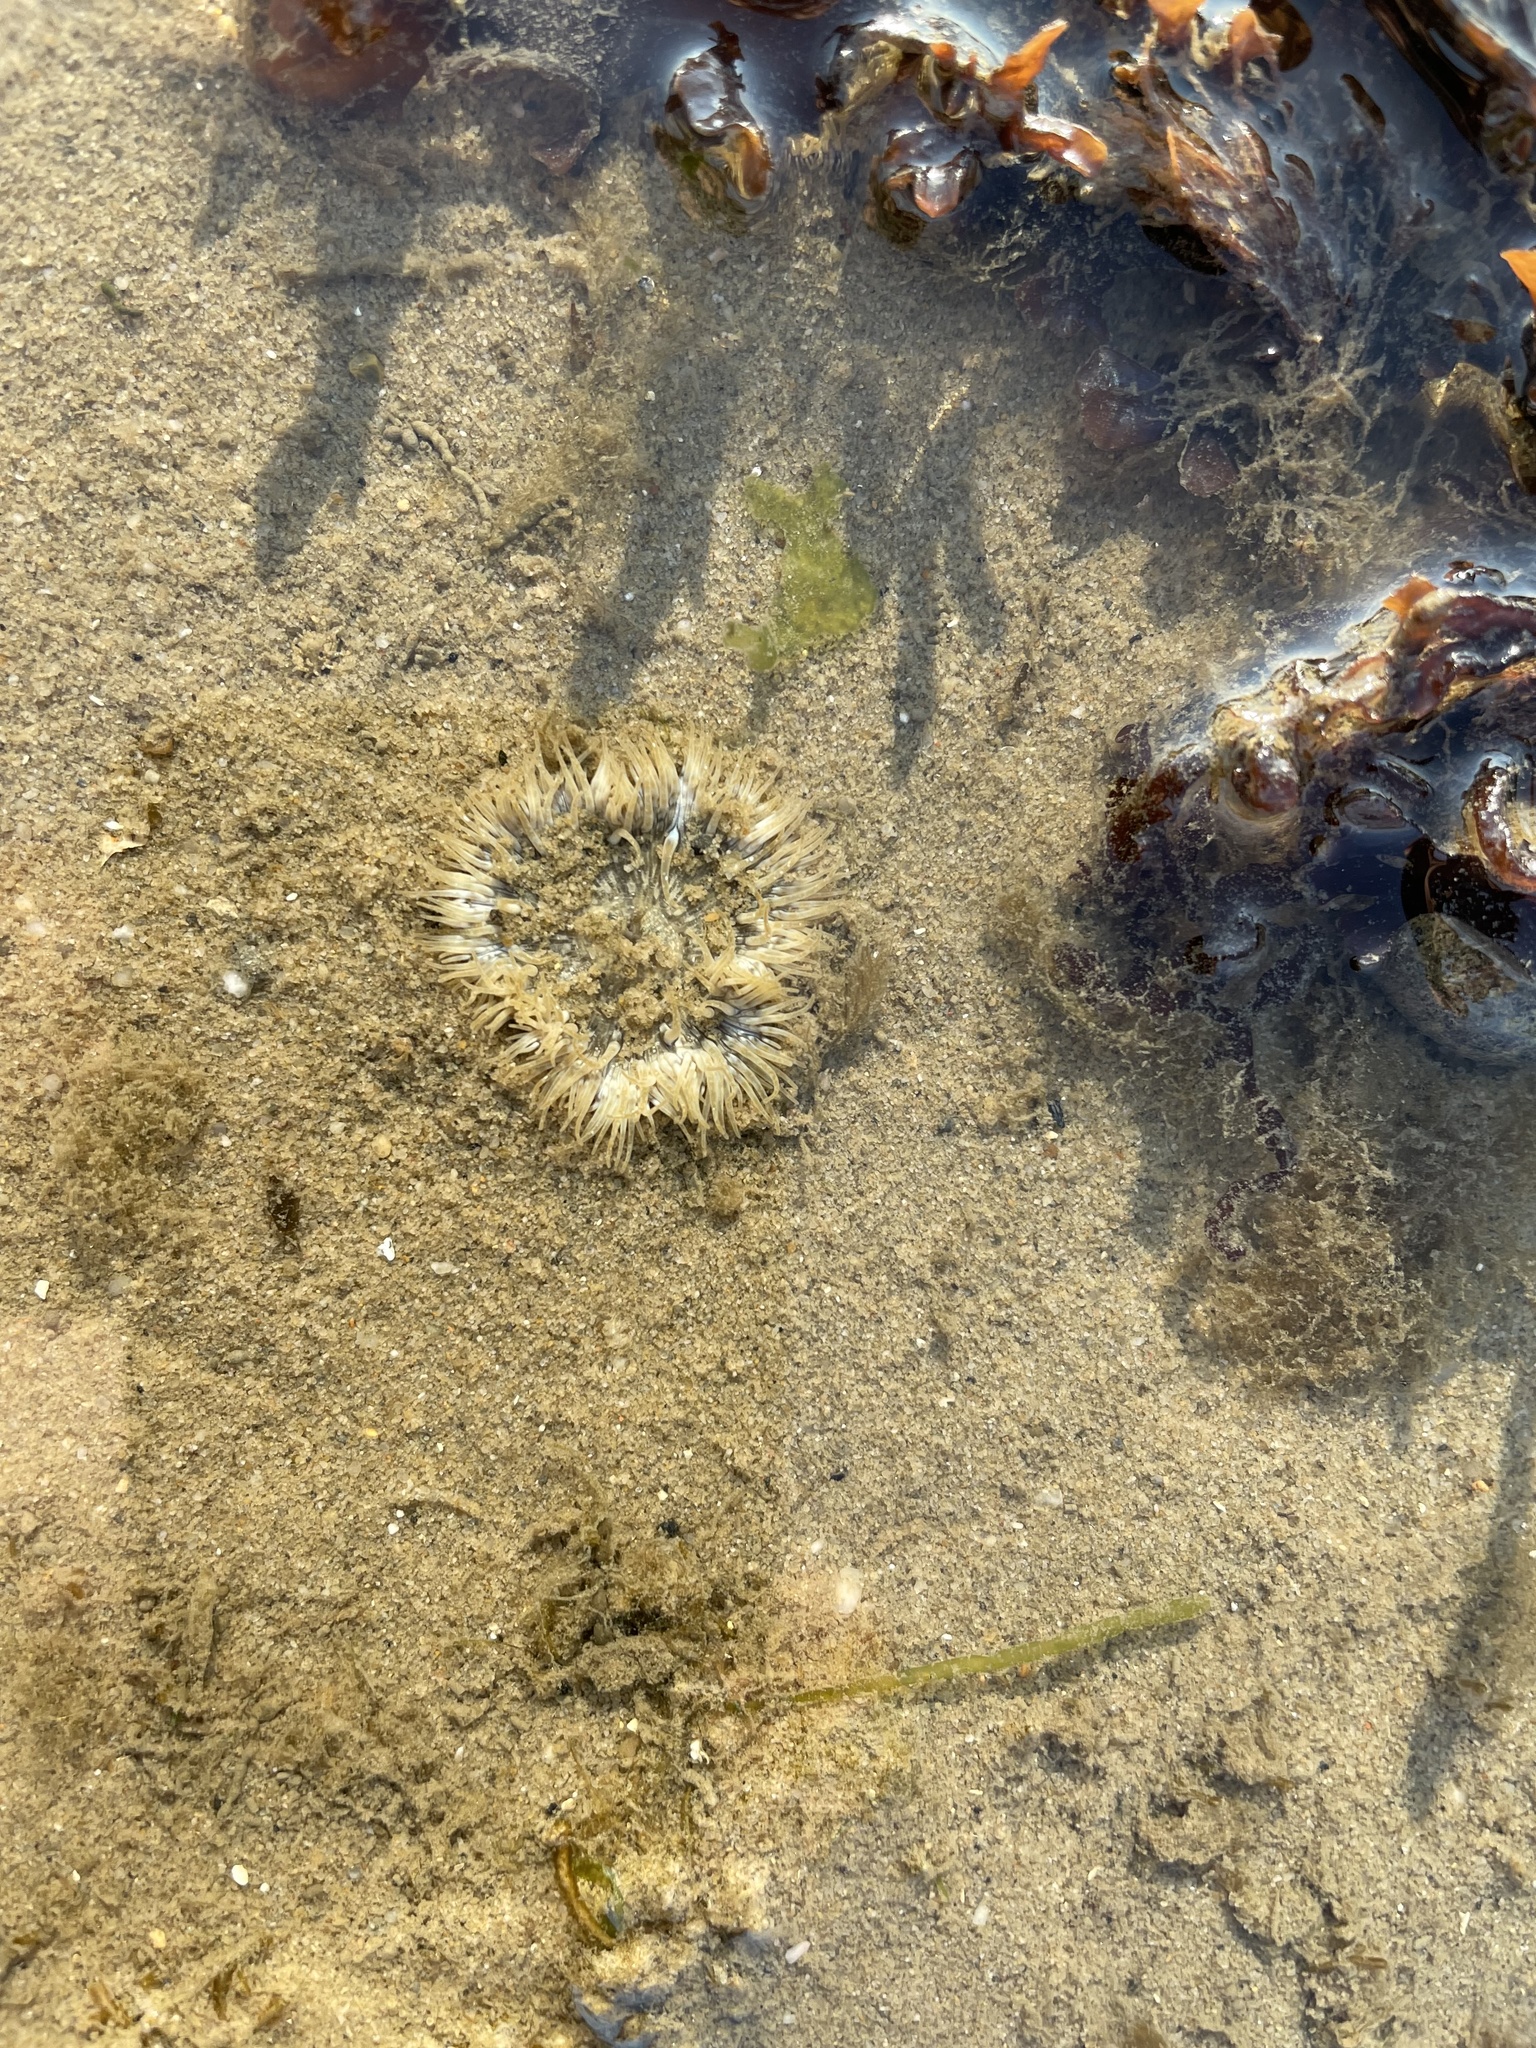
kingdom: Animalia
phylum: Cnidaria
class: Anthozoa
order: Actiniaria
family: Sagartiidae
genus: Cereus
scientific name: Cereus pedunculatus
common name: Daisy anemone
